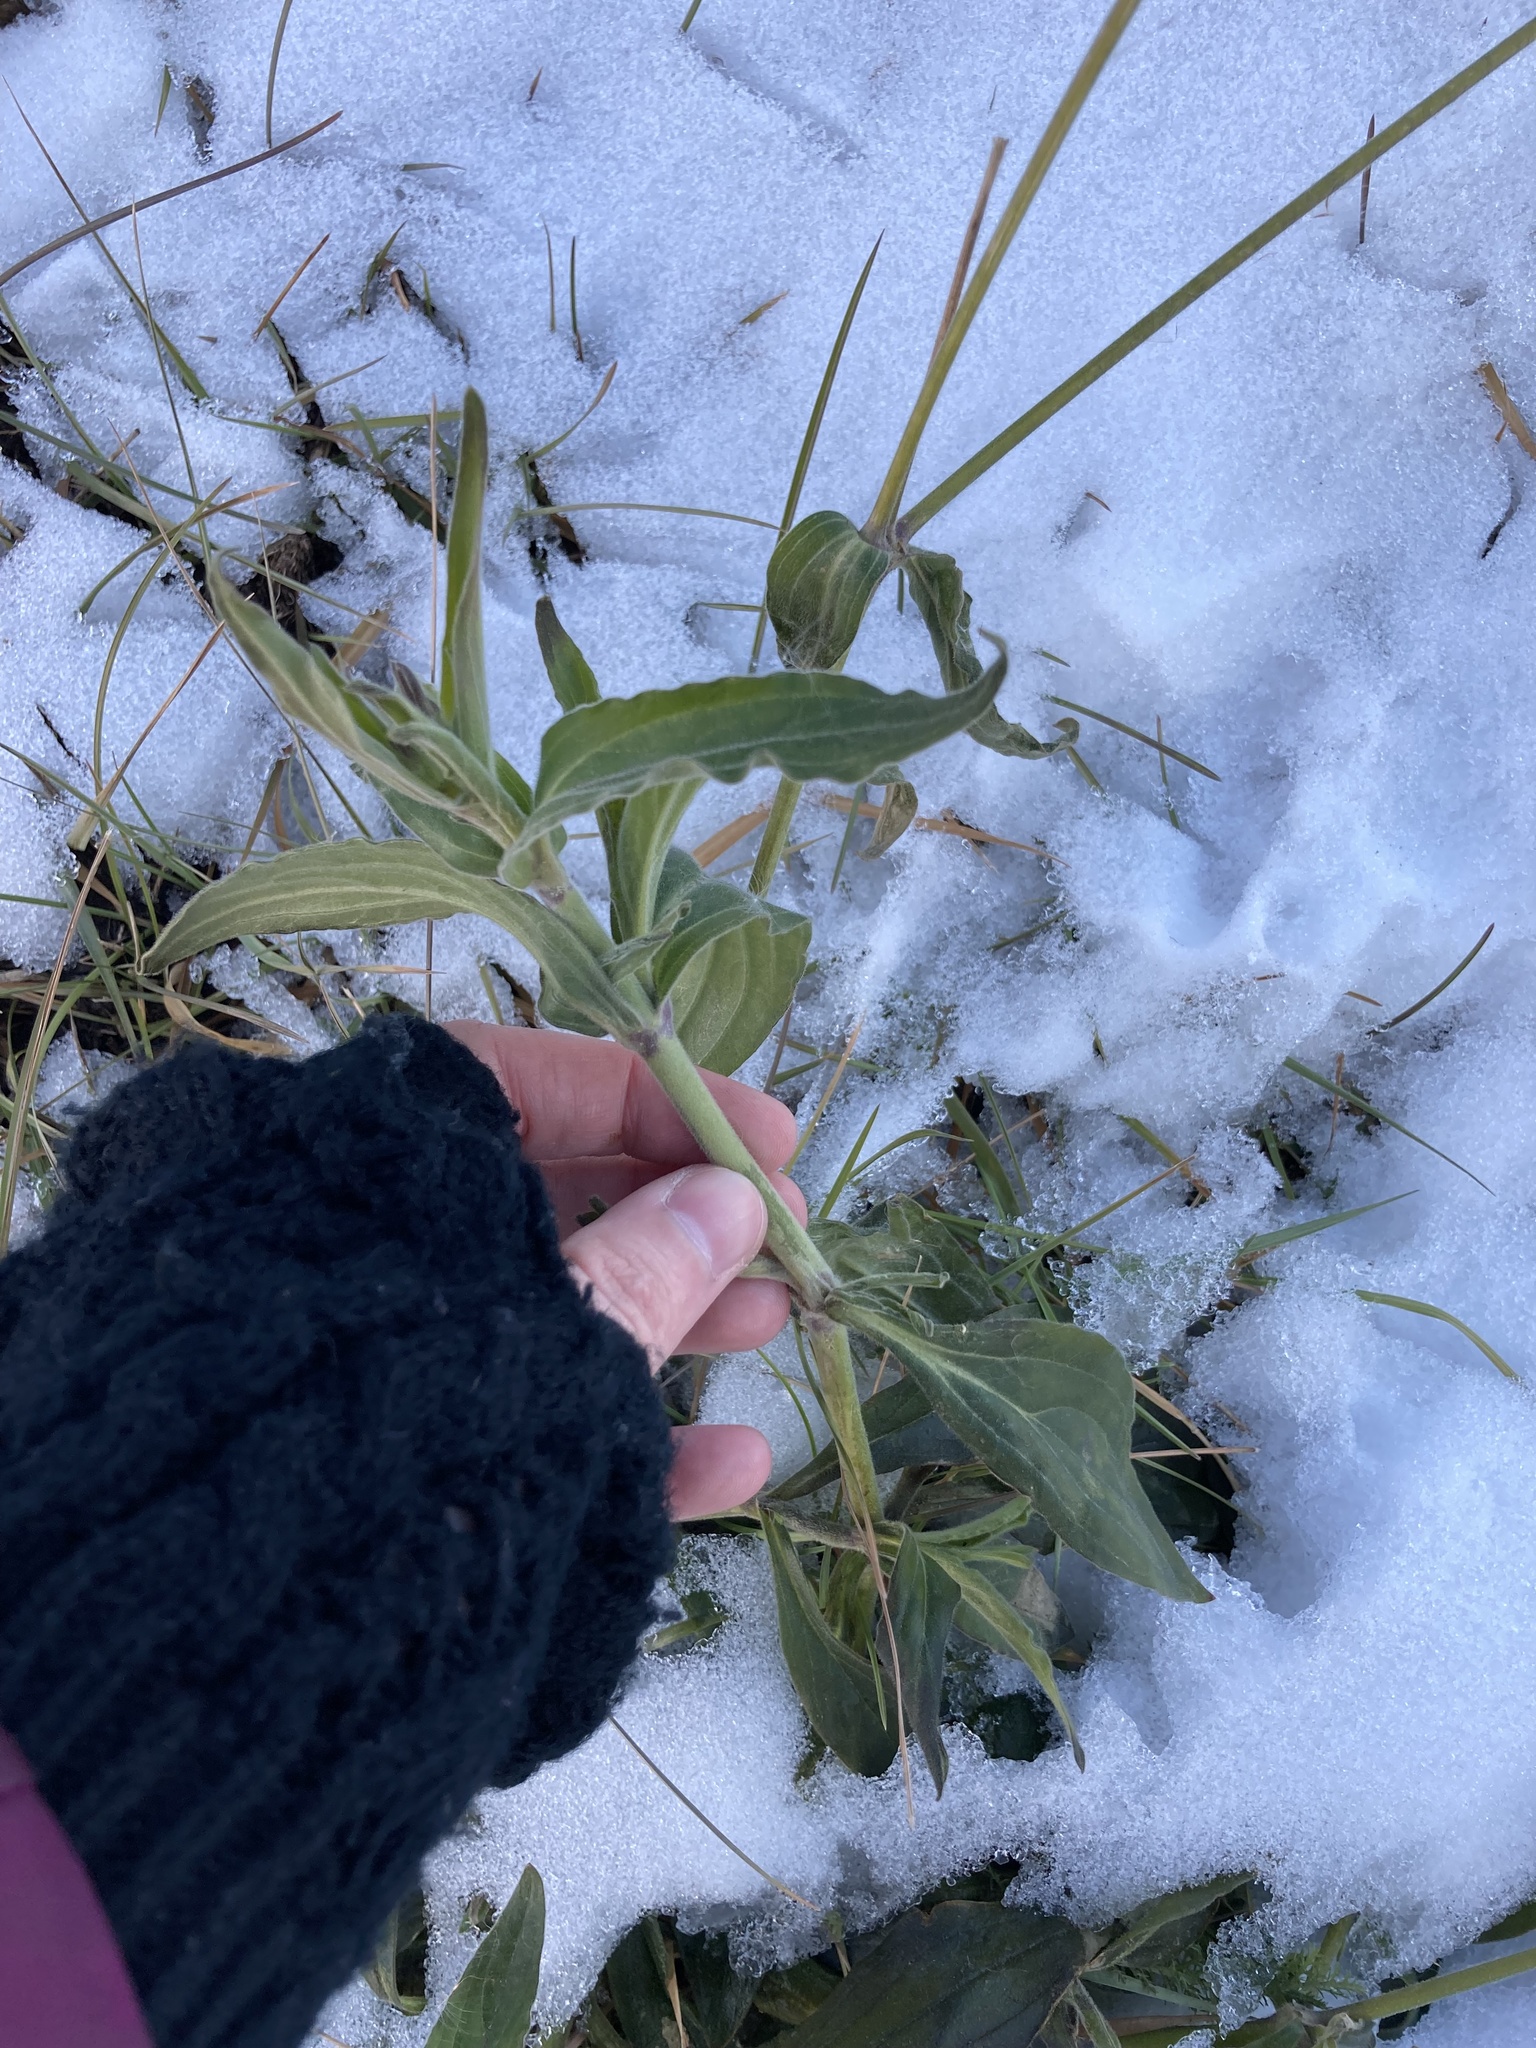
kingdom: Plantae
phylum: Tracheophyta
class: Magnoliopsida
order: Caryophyllales
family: Caryophyllaceae
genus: Silene
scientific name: Silene latifolia
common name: White campion
